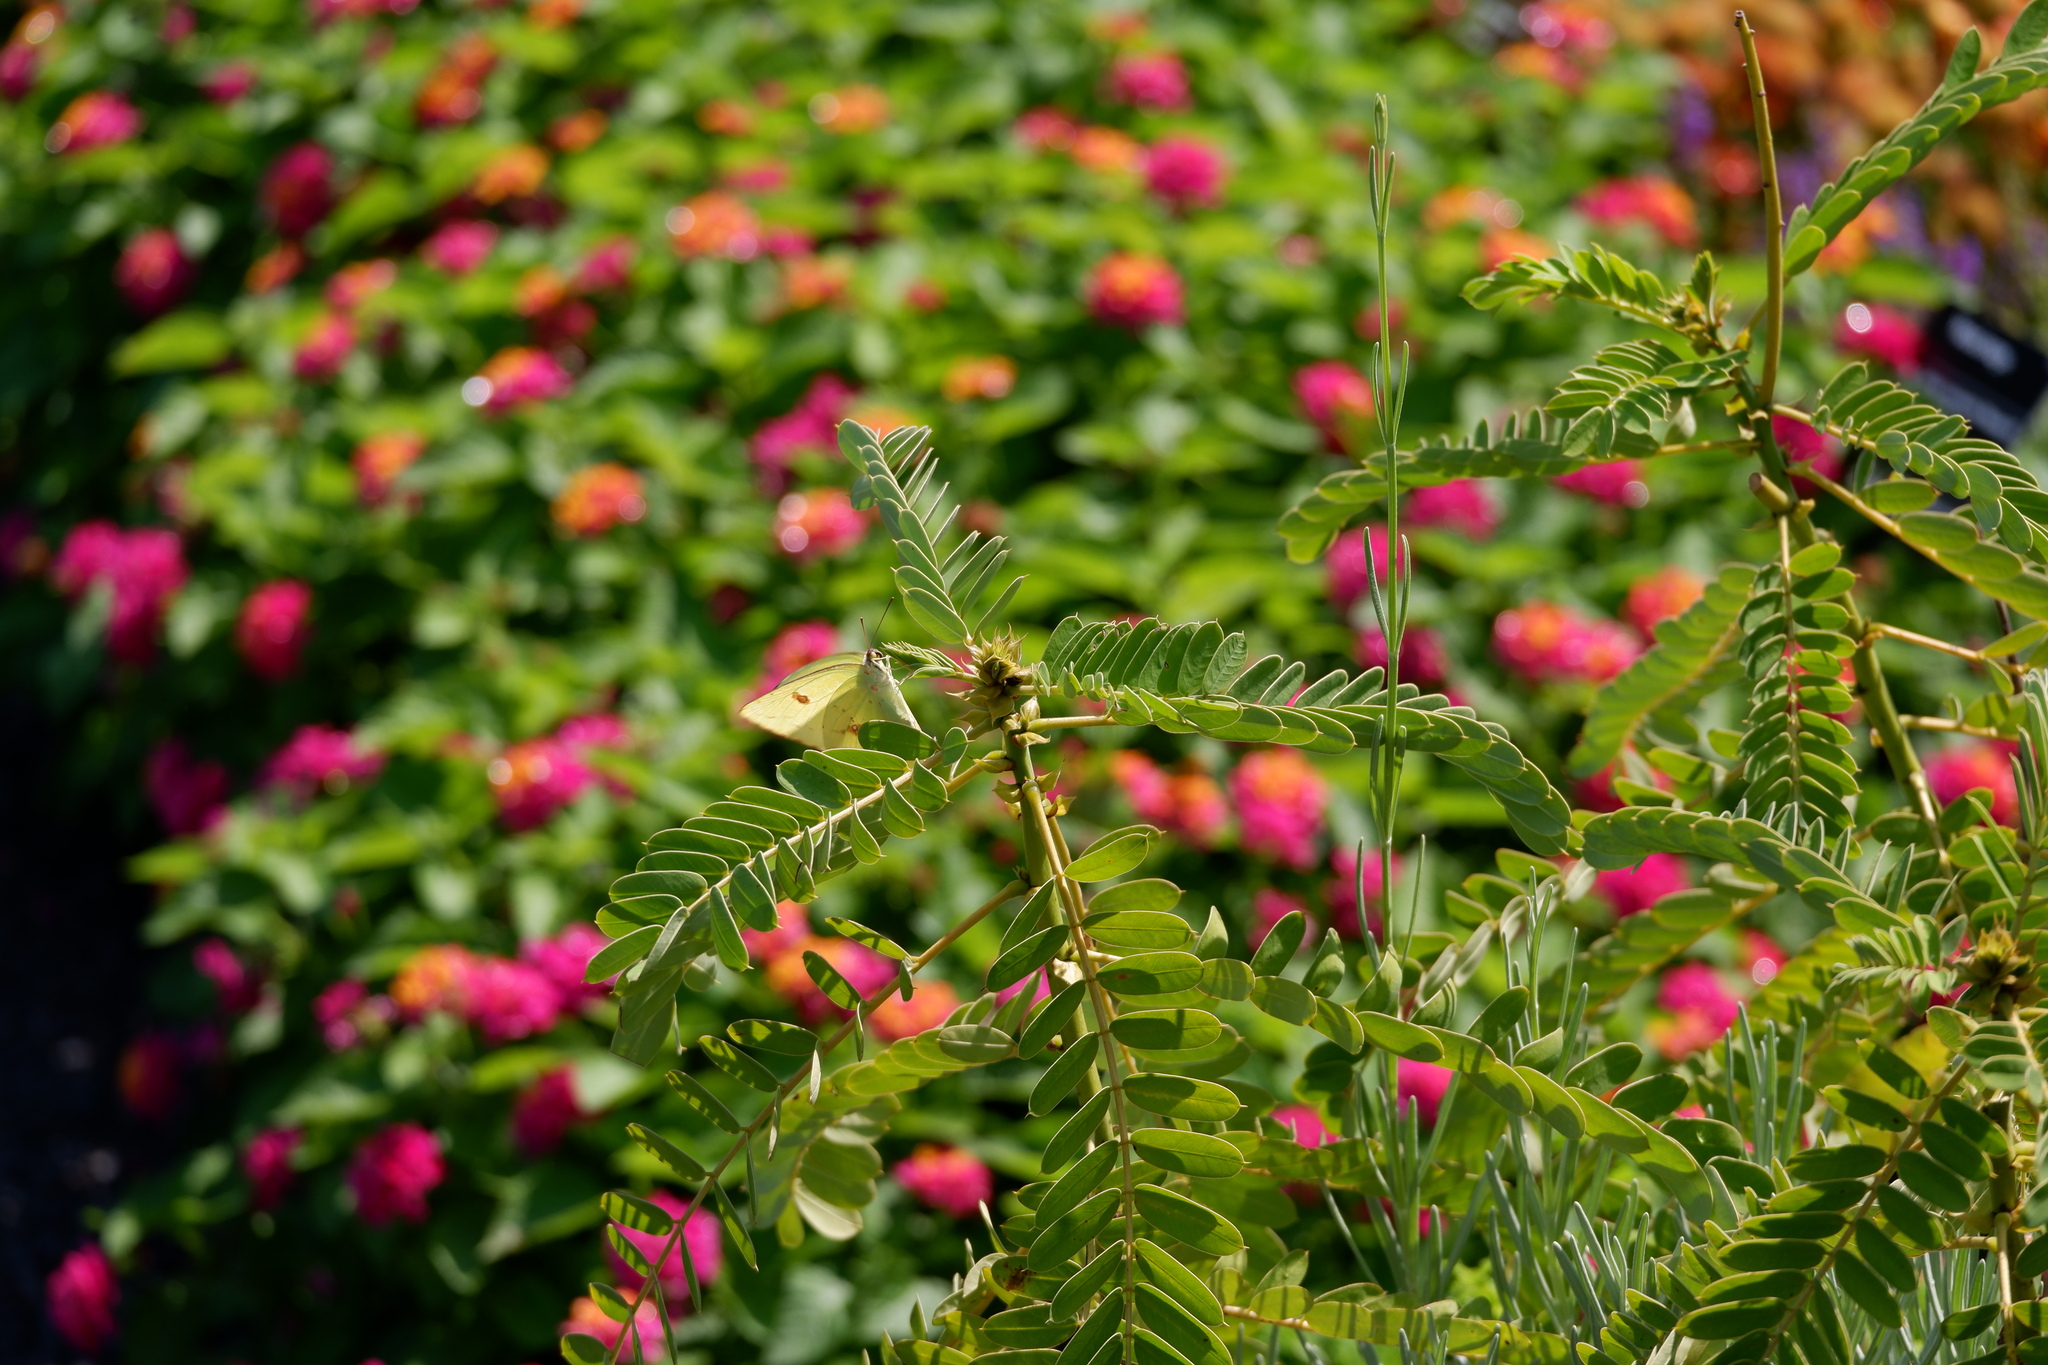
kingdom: Animalia
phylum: Arthropoda
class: Insecta
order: Lepidoptera
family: Pieridae
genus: Phoebis
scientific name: Phoebis sennae
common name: Cloudless sulphur
